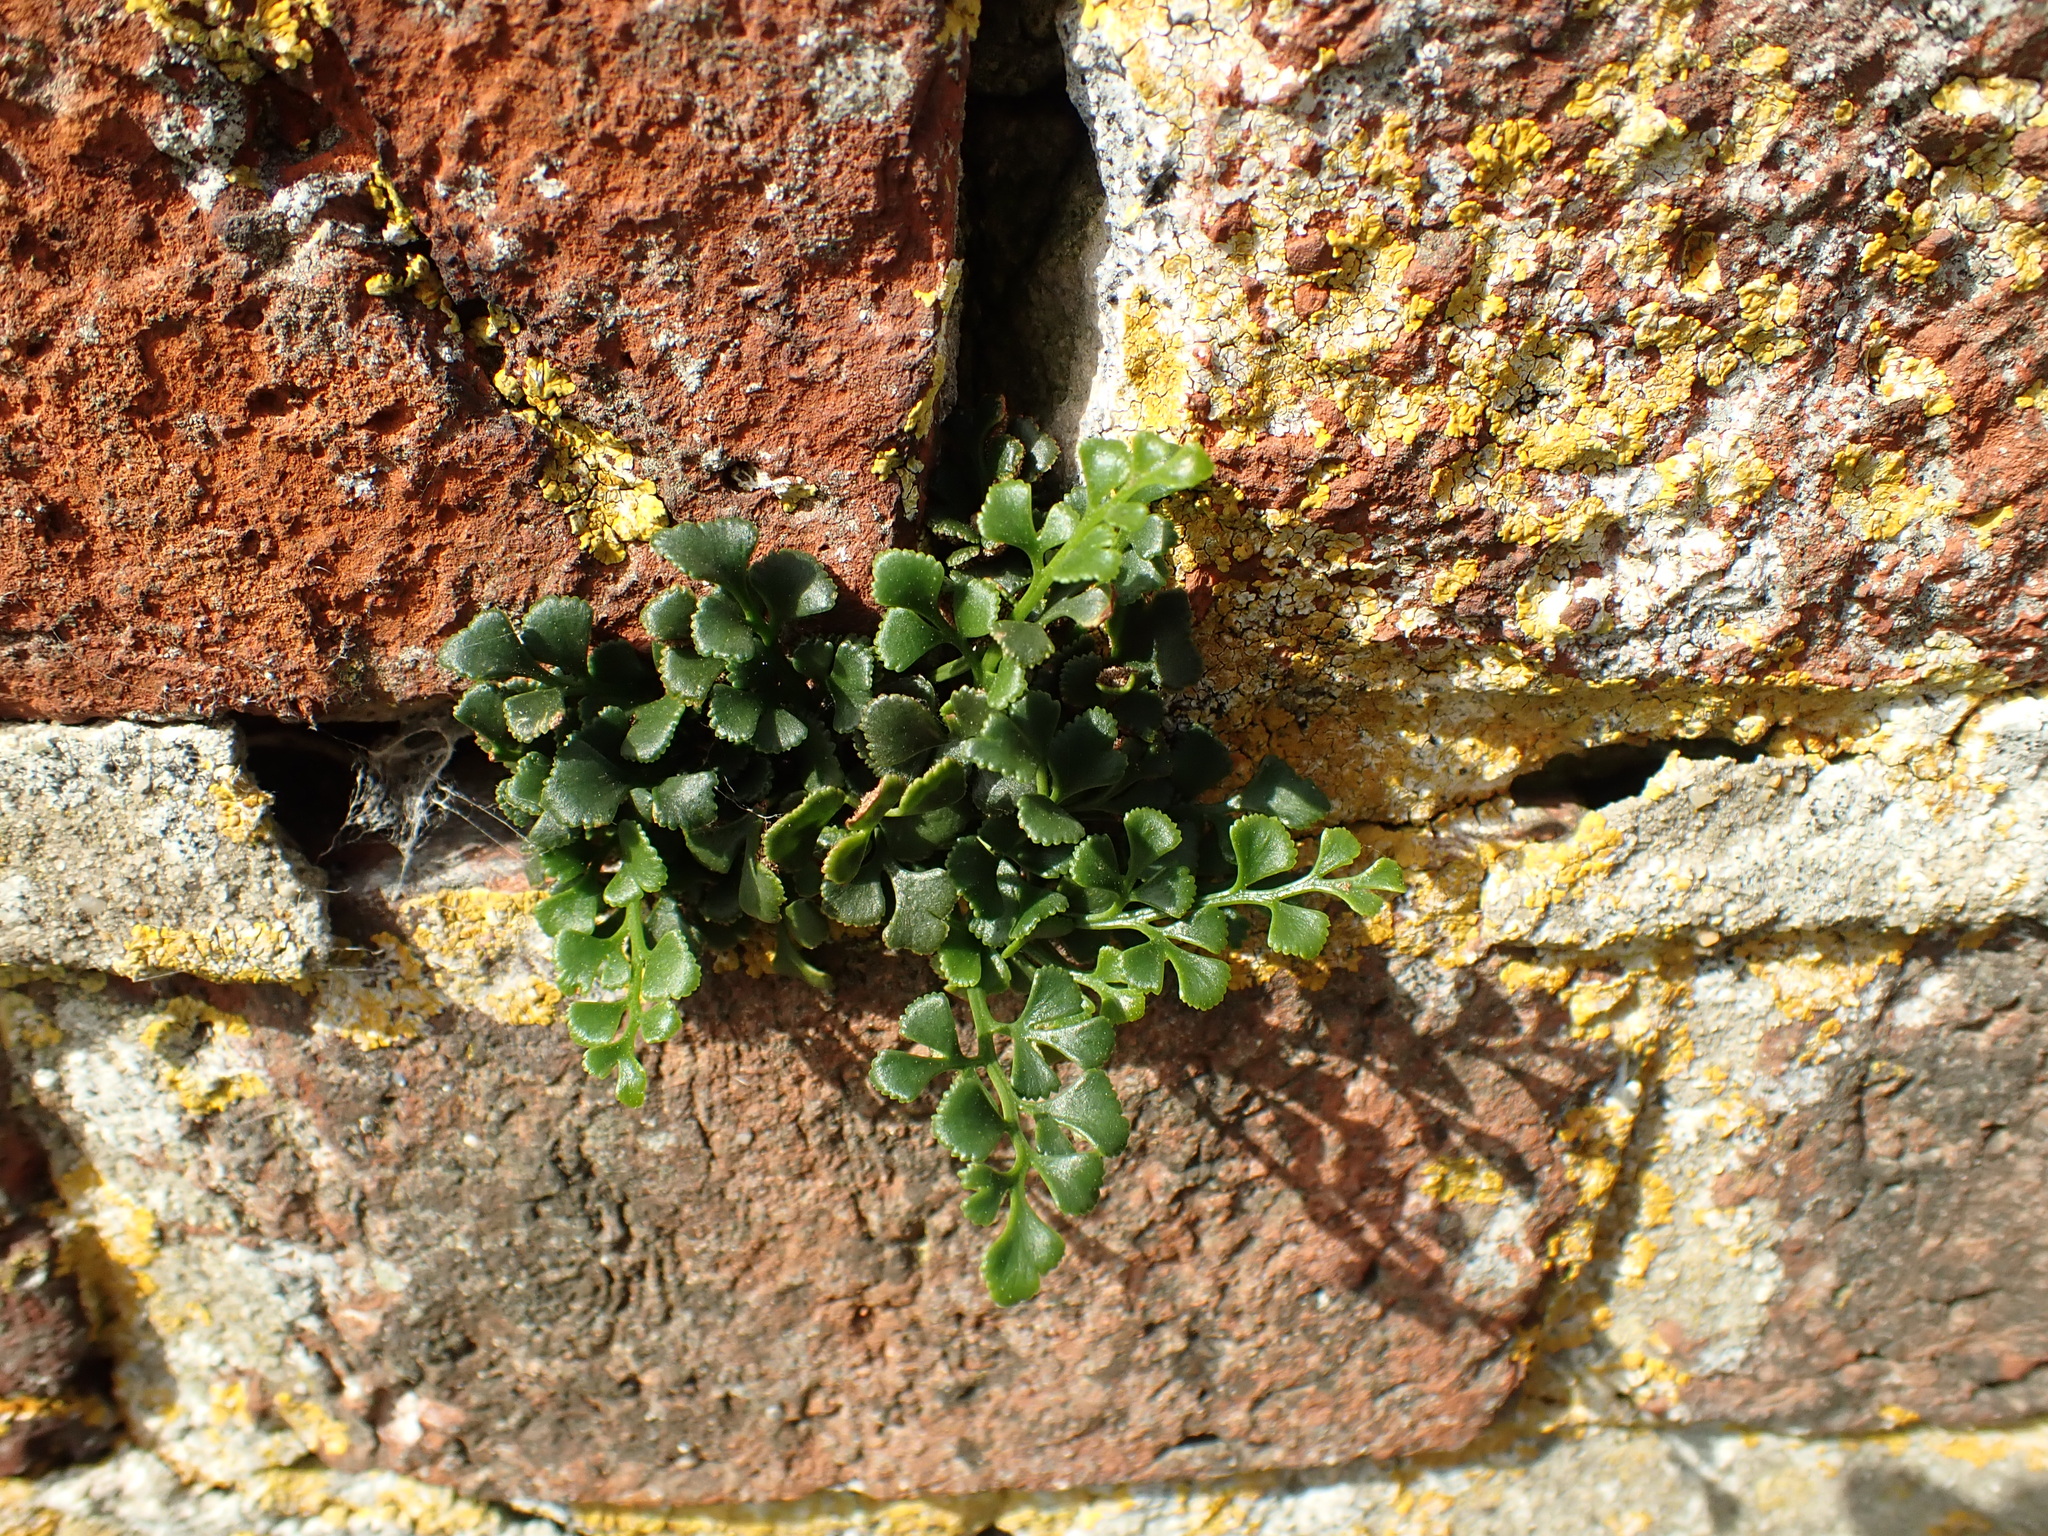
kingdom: Plantae
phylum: Tracheophyta
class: Polypodiopsida
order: Polypodiales
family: Aspleniaceae
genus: Asplenium
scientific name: Asplenium ruta-muraria
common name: Wall-rue
